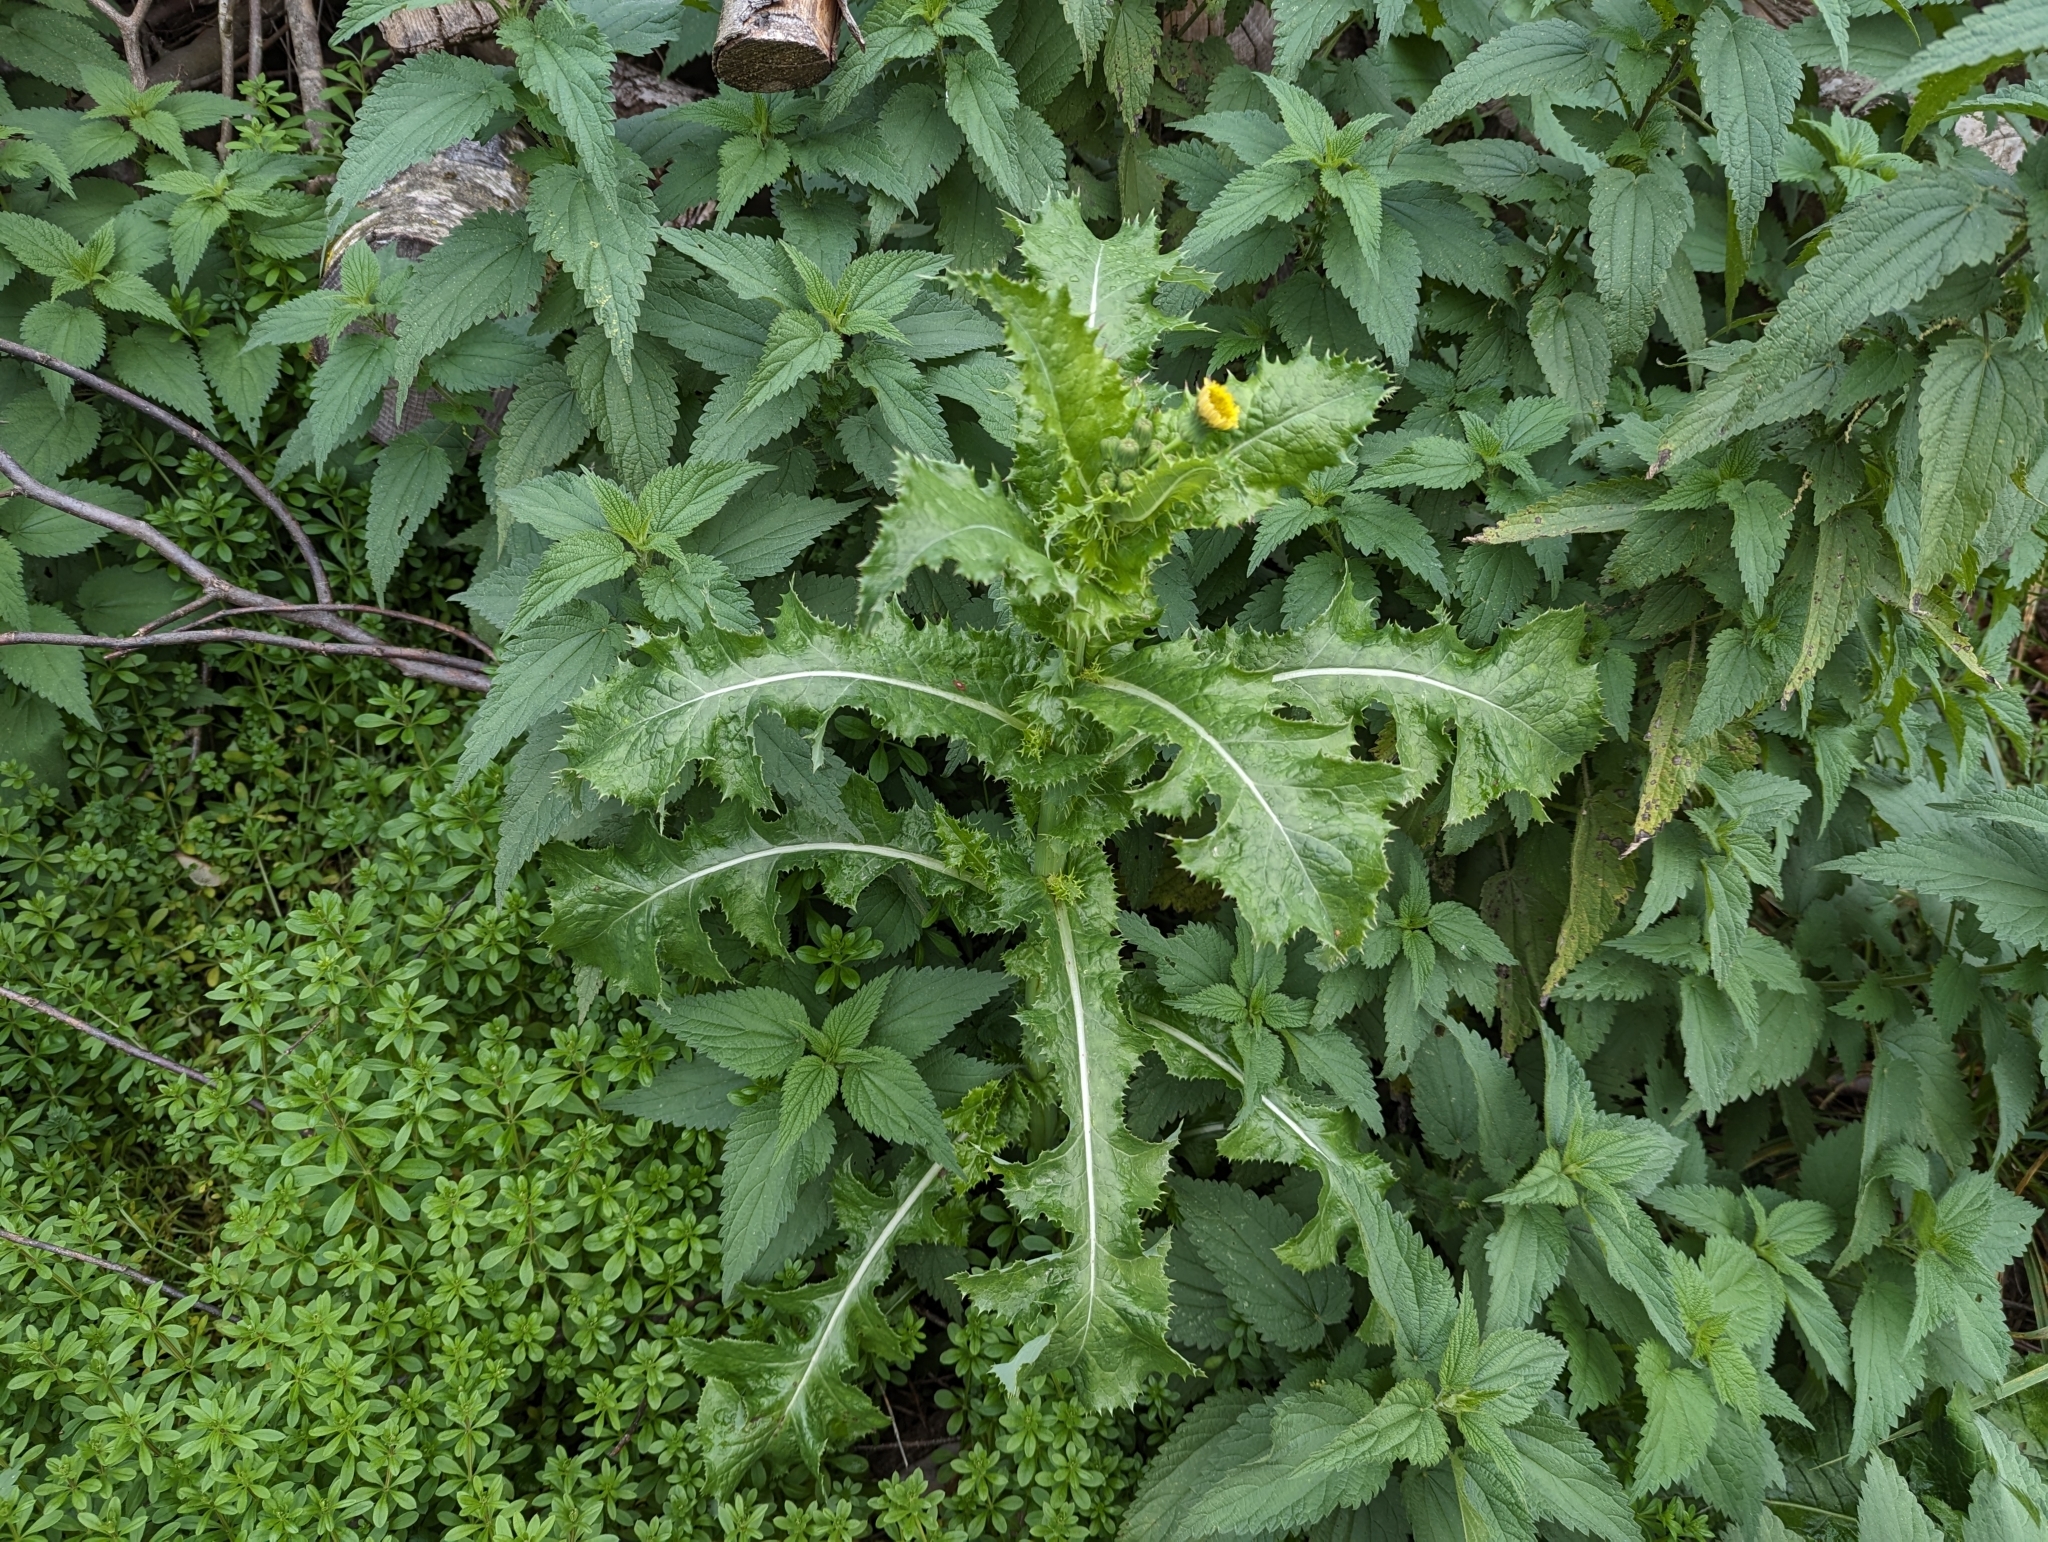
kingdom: Plantae
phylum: Tracheophyta
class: Magnoliopsida
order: Asterales
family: Asteraceae
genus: Sonchus
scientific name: Sonchus asper
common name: Prickly sow-thistle
